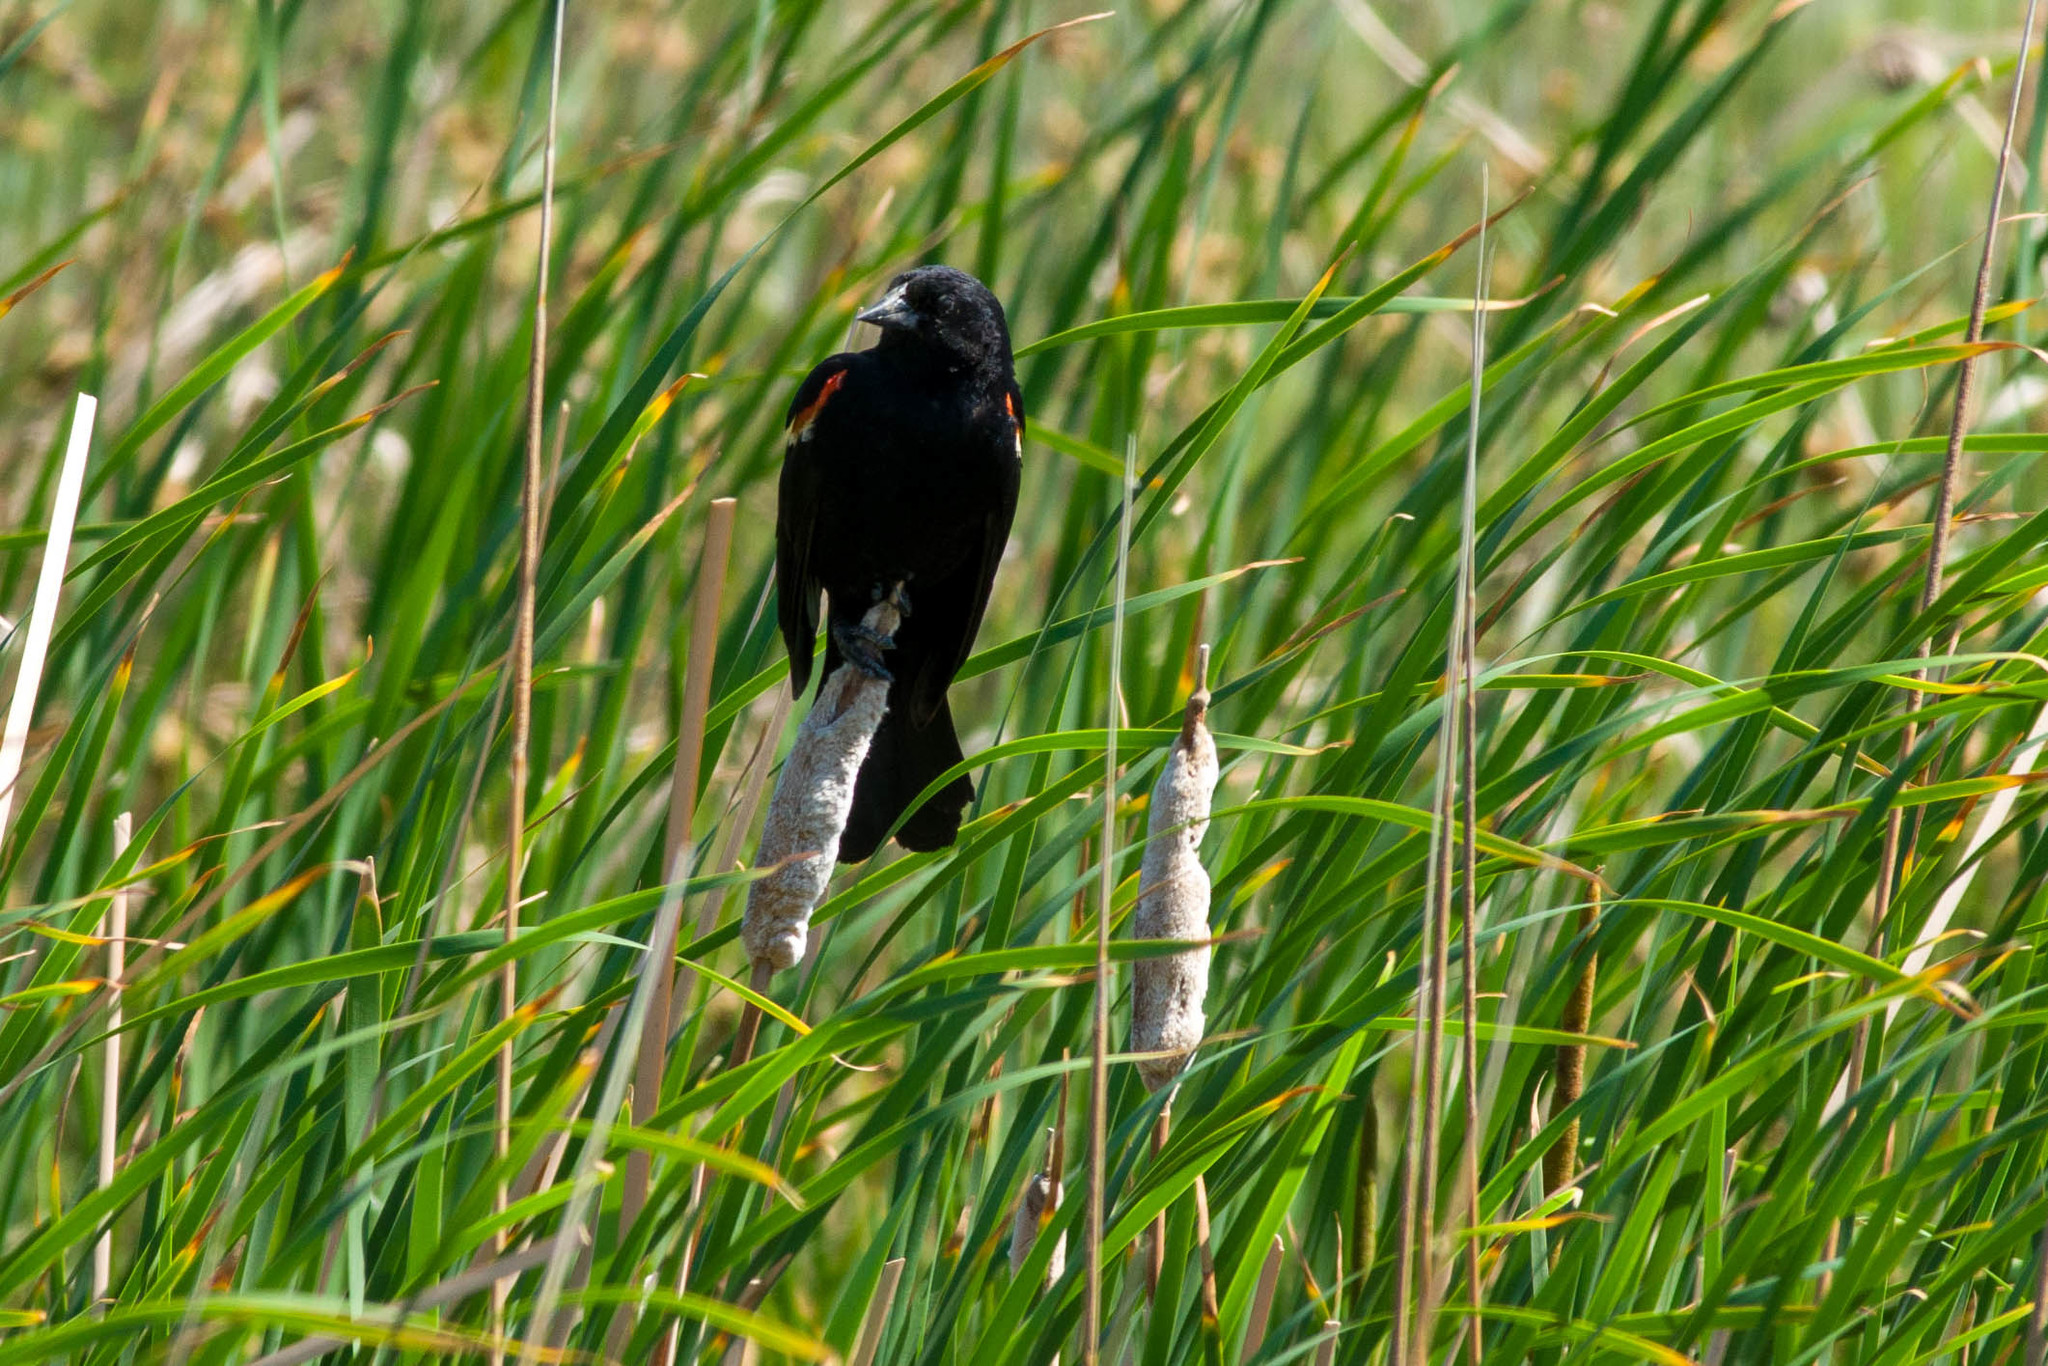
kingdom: Animalia
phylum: Chordata
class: Aves
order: Passeriformes
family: Icteridae
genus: Agelaius
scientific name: Agelaius phoeniceus
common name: Red-winged blackbird
